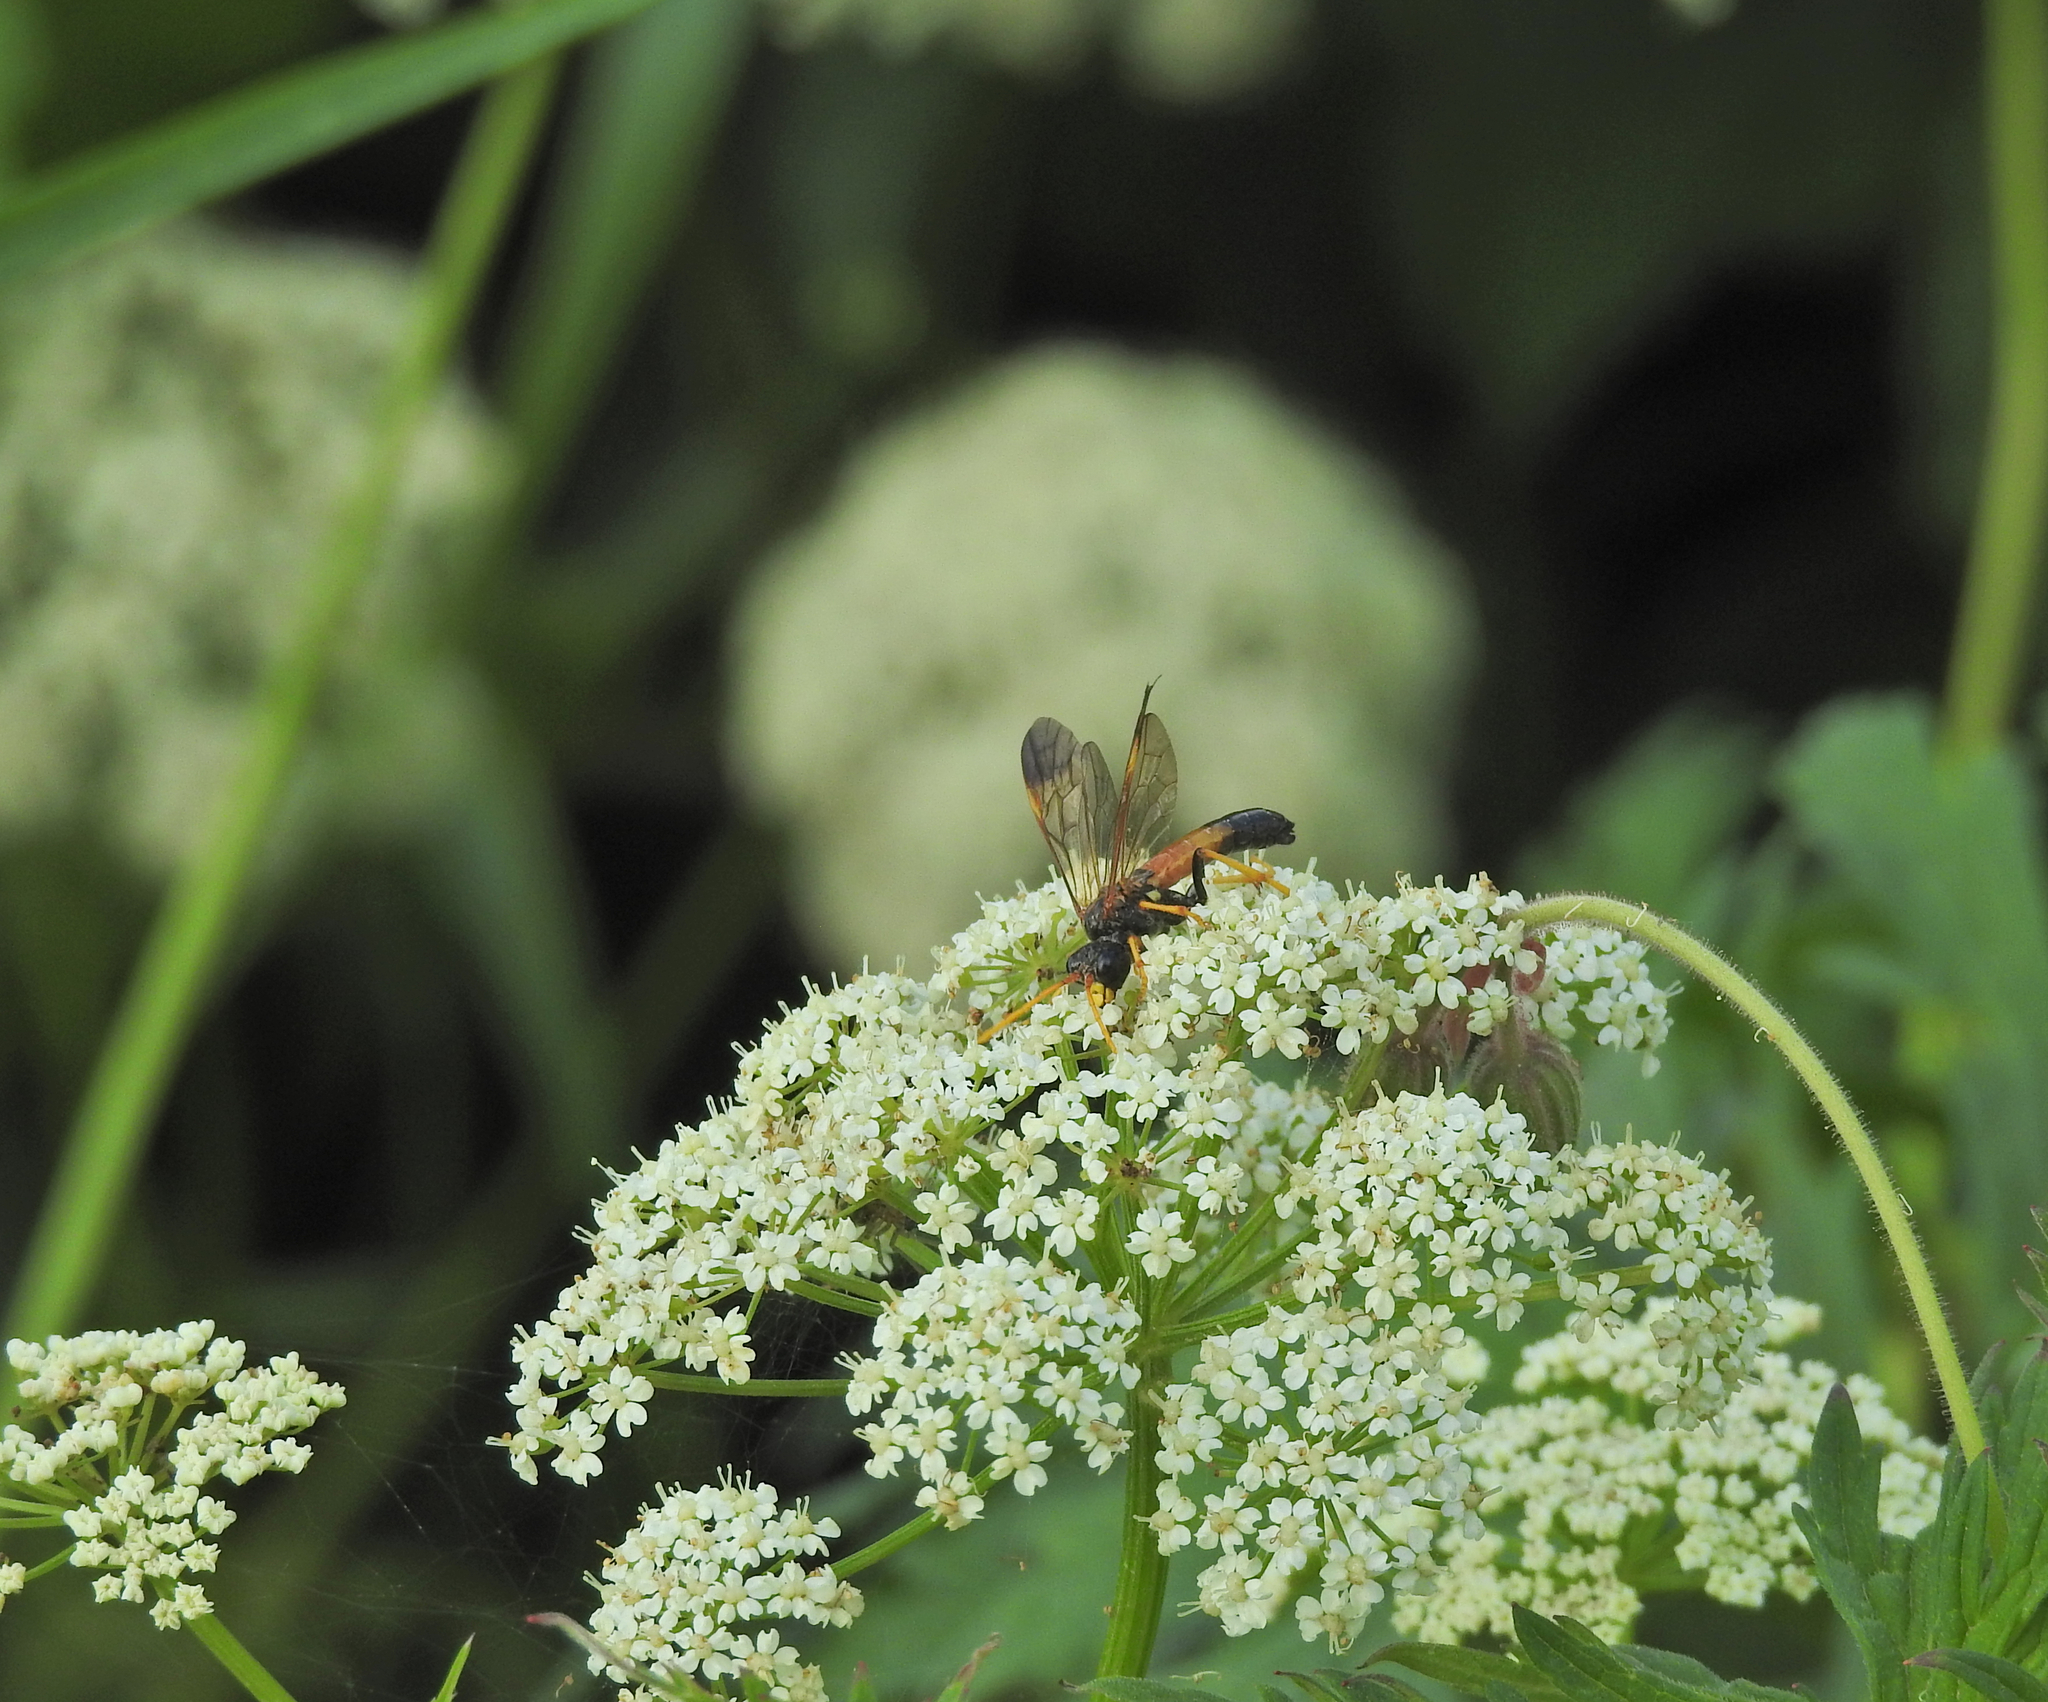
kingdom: Animalia
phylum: Arthropoda
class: Insecta
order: Hymenoptera
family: Tenthredinidae
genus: Tenthredo
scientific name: Tenthredo campestris
